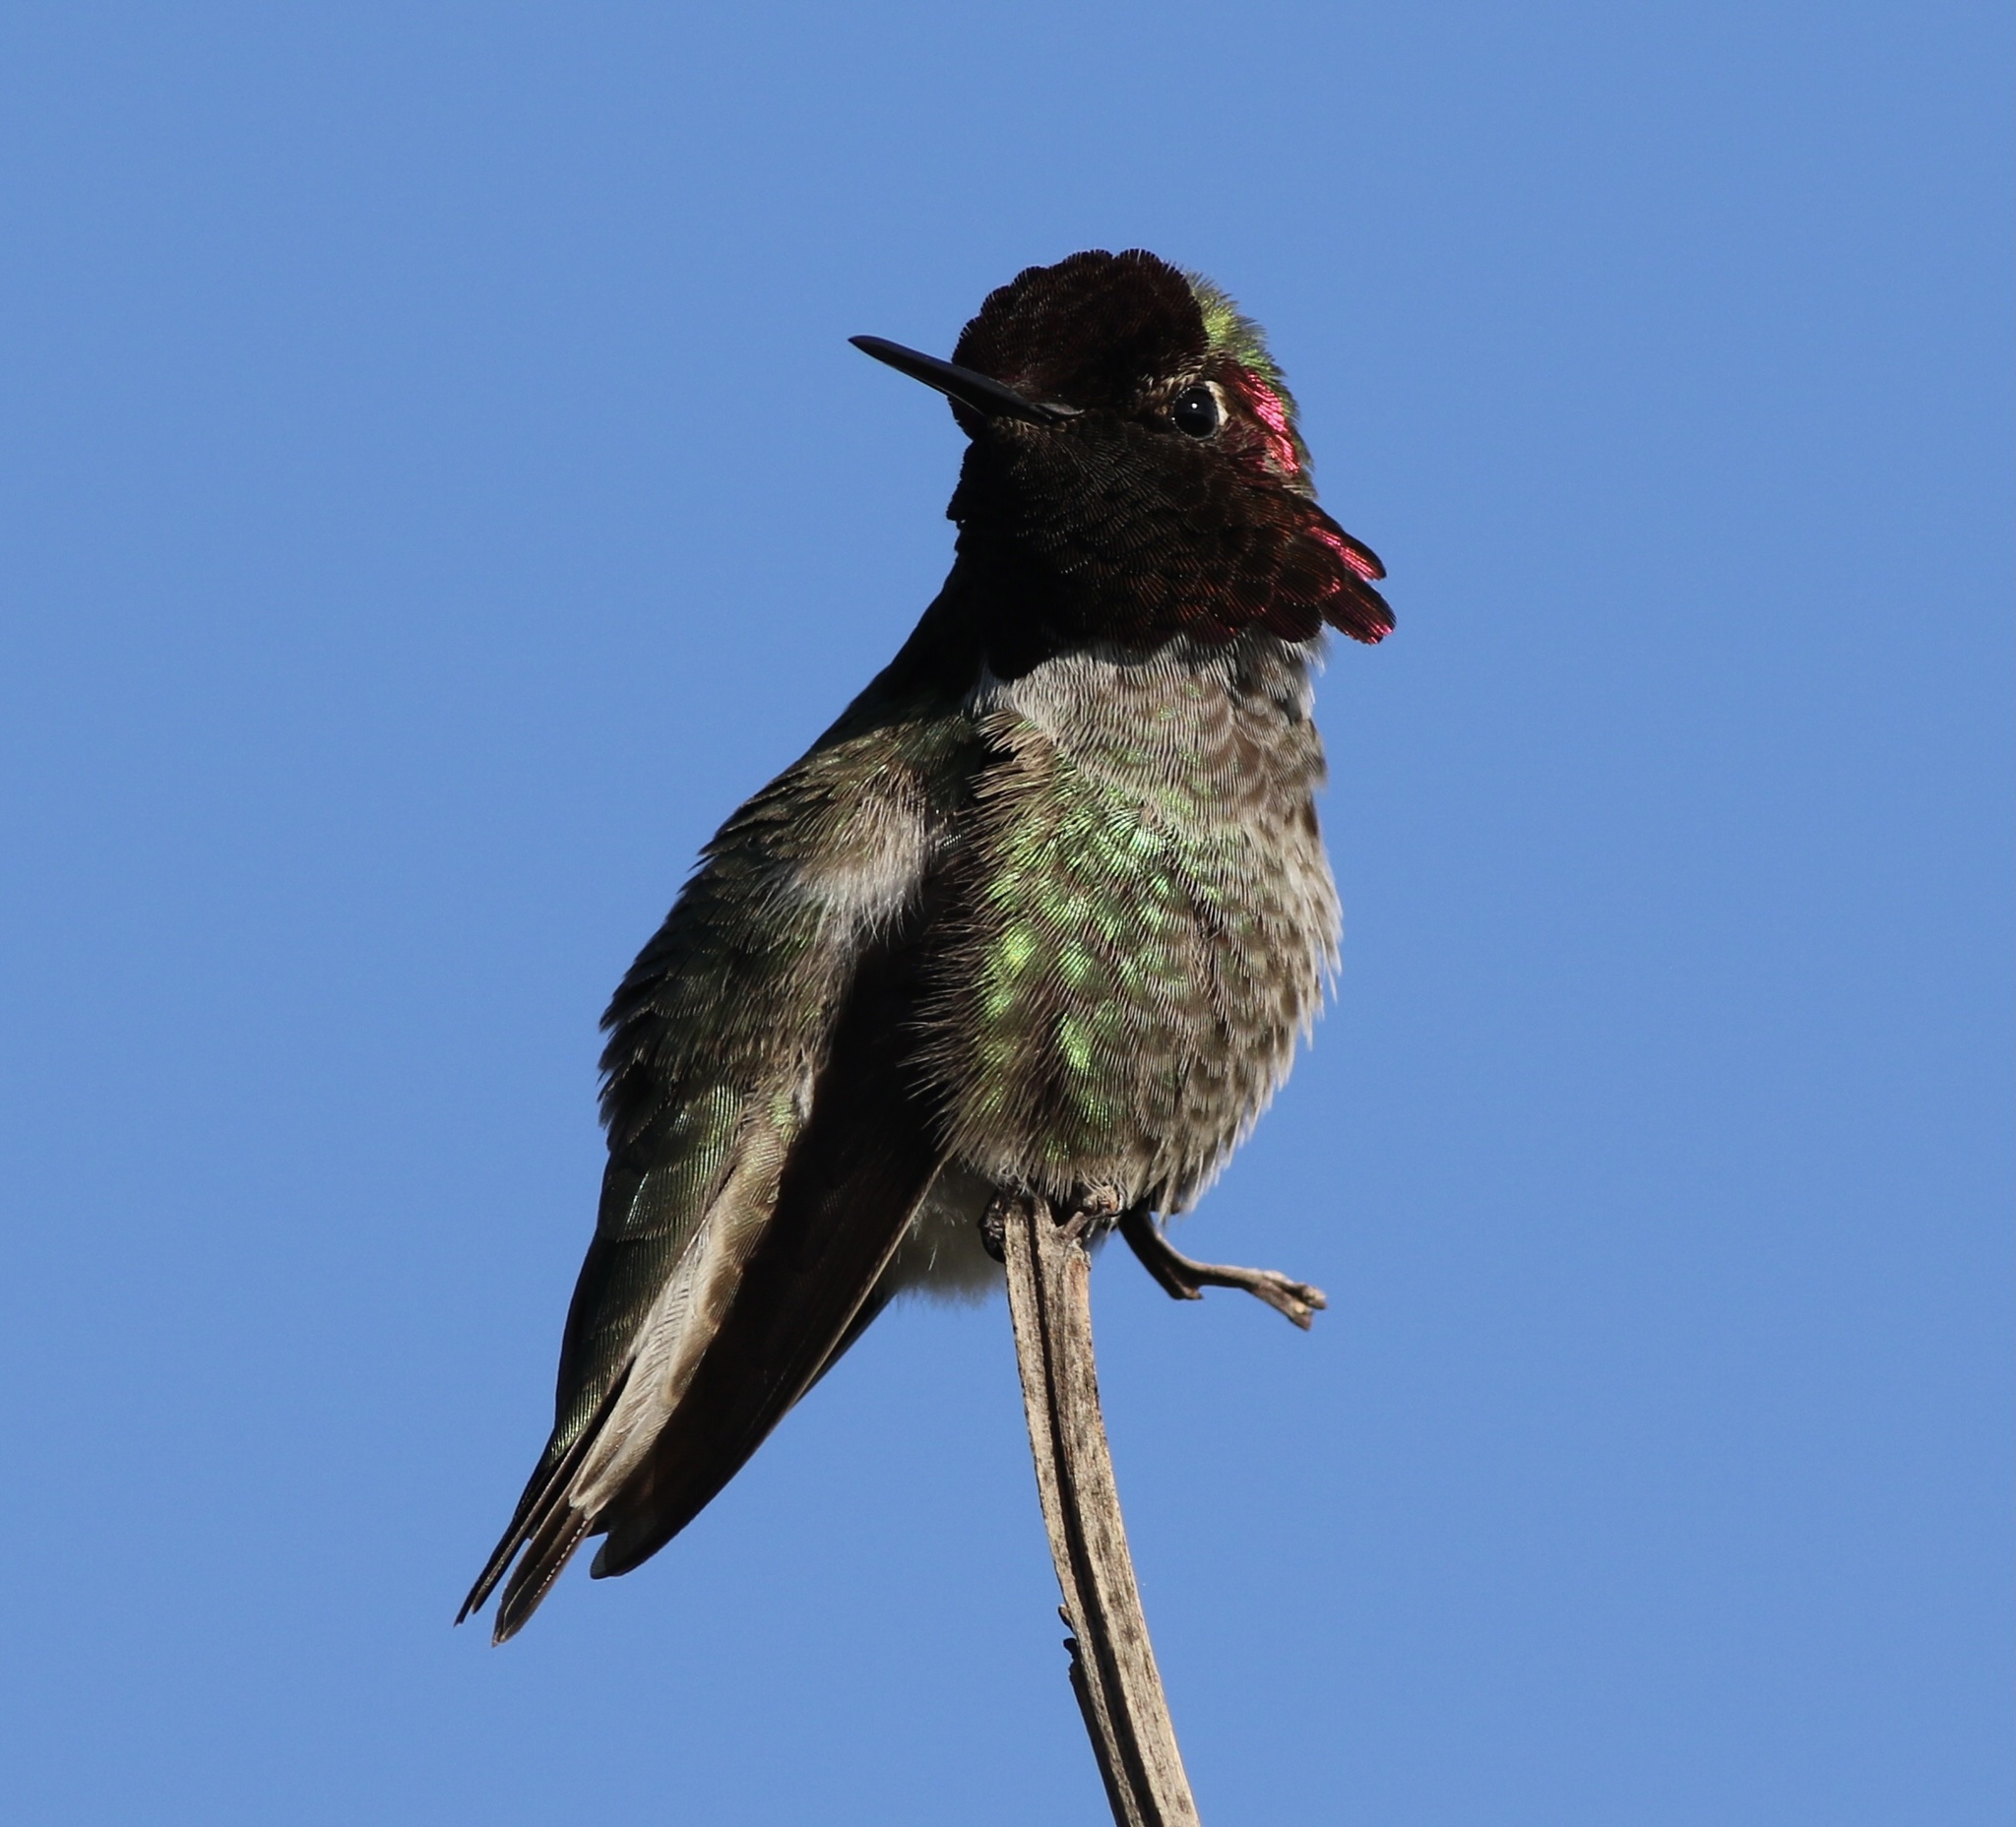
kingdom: Animalia
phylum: Chordata
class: Aves
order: Apodiformes
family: Trochilidae
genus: Calypte
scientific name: Calypte anna
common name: Anna's hummingbird
